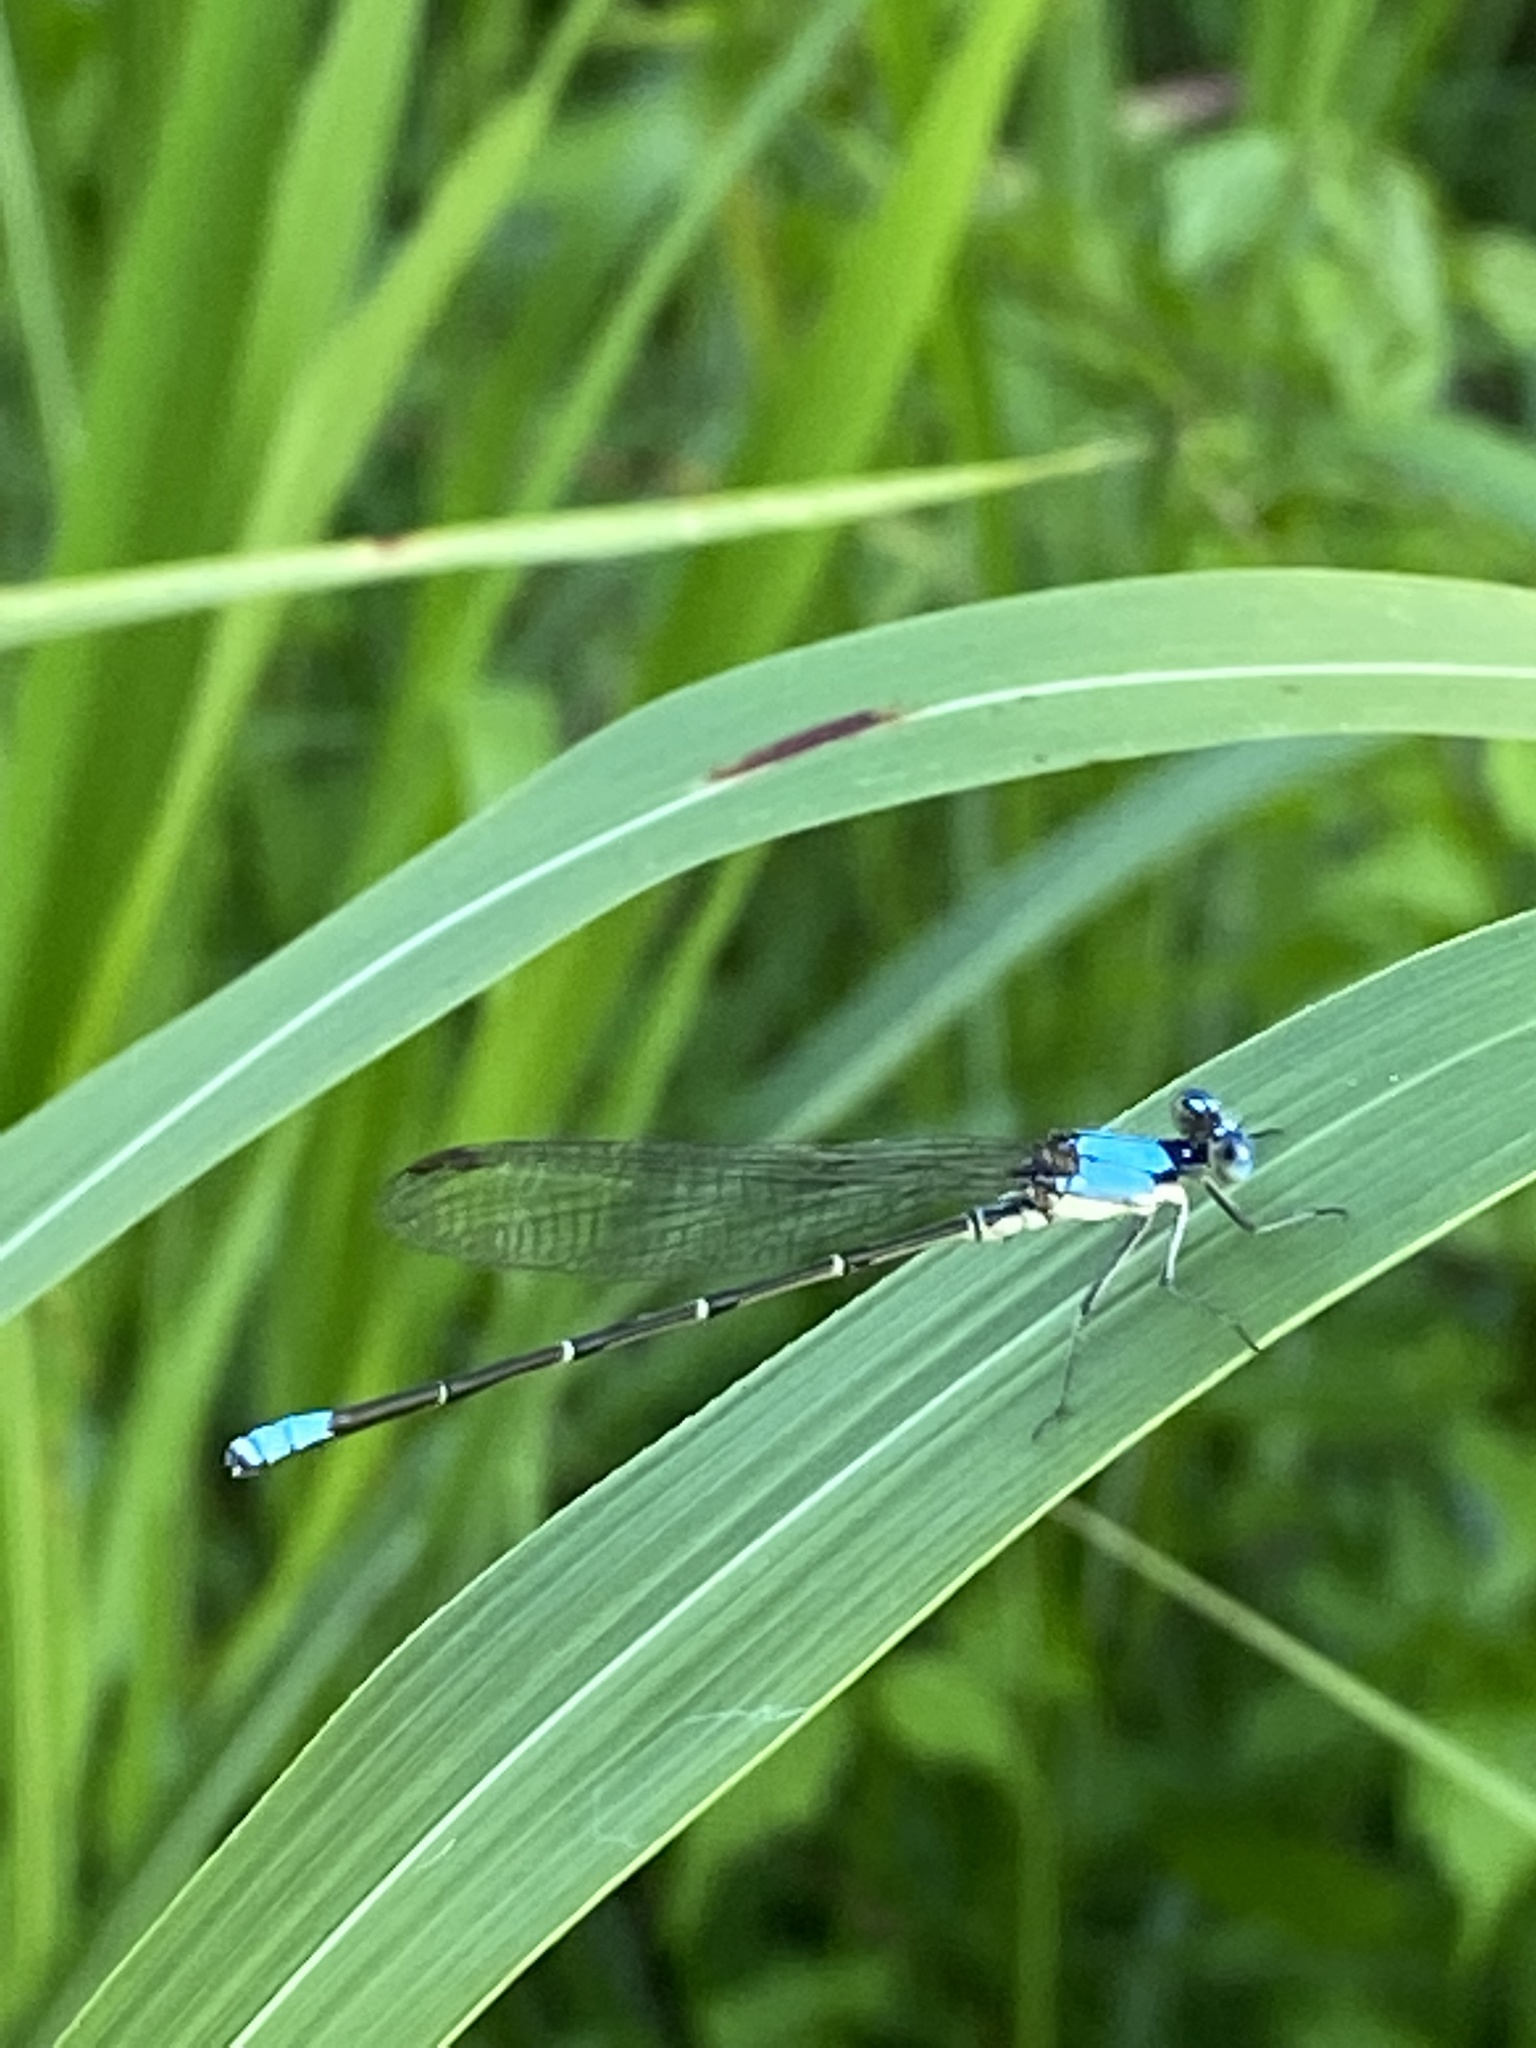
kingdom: Animalia
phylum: Arthropoda
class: Insecta
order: Odonata
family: Coenagrionidae
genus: Argia
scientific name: Argia apicalis
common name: Blue-fronted dancer
